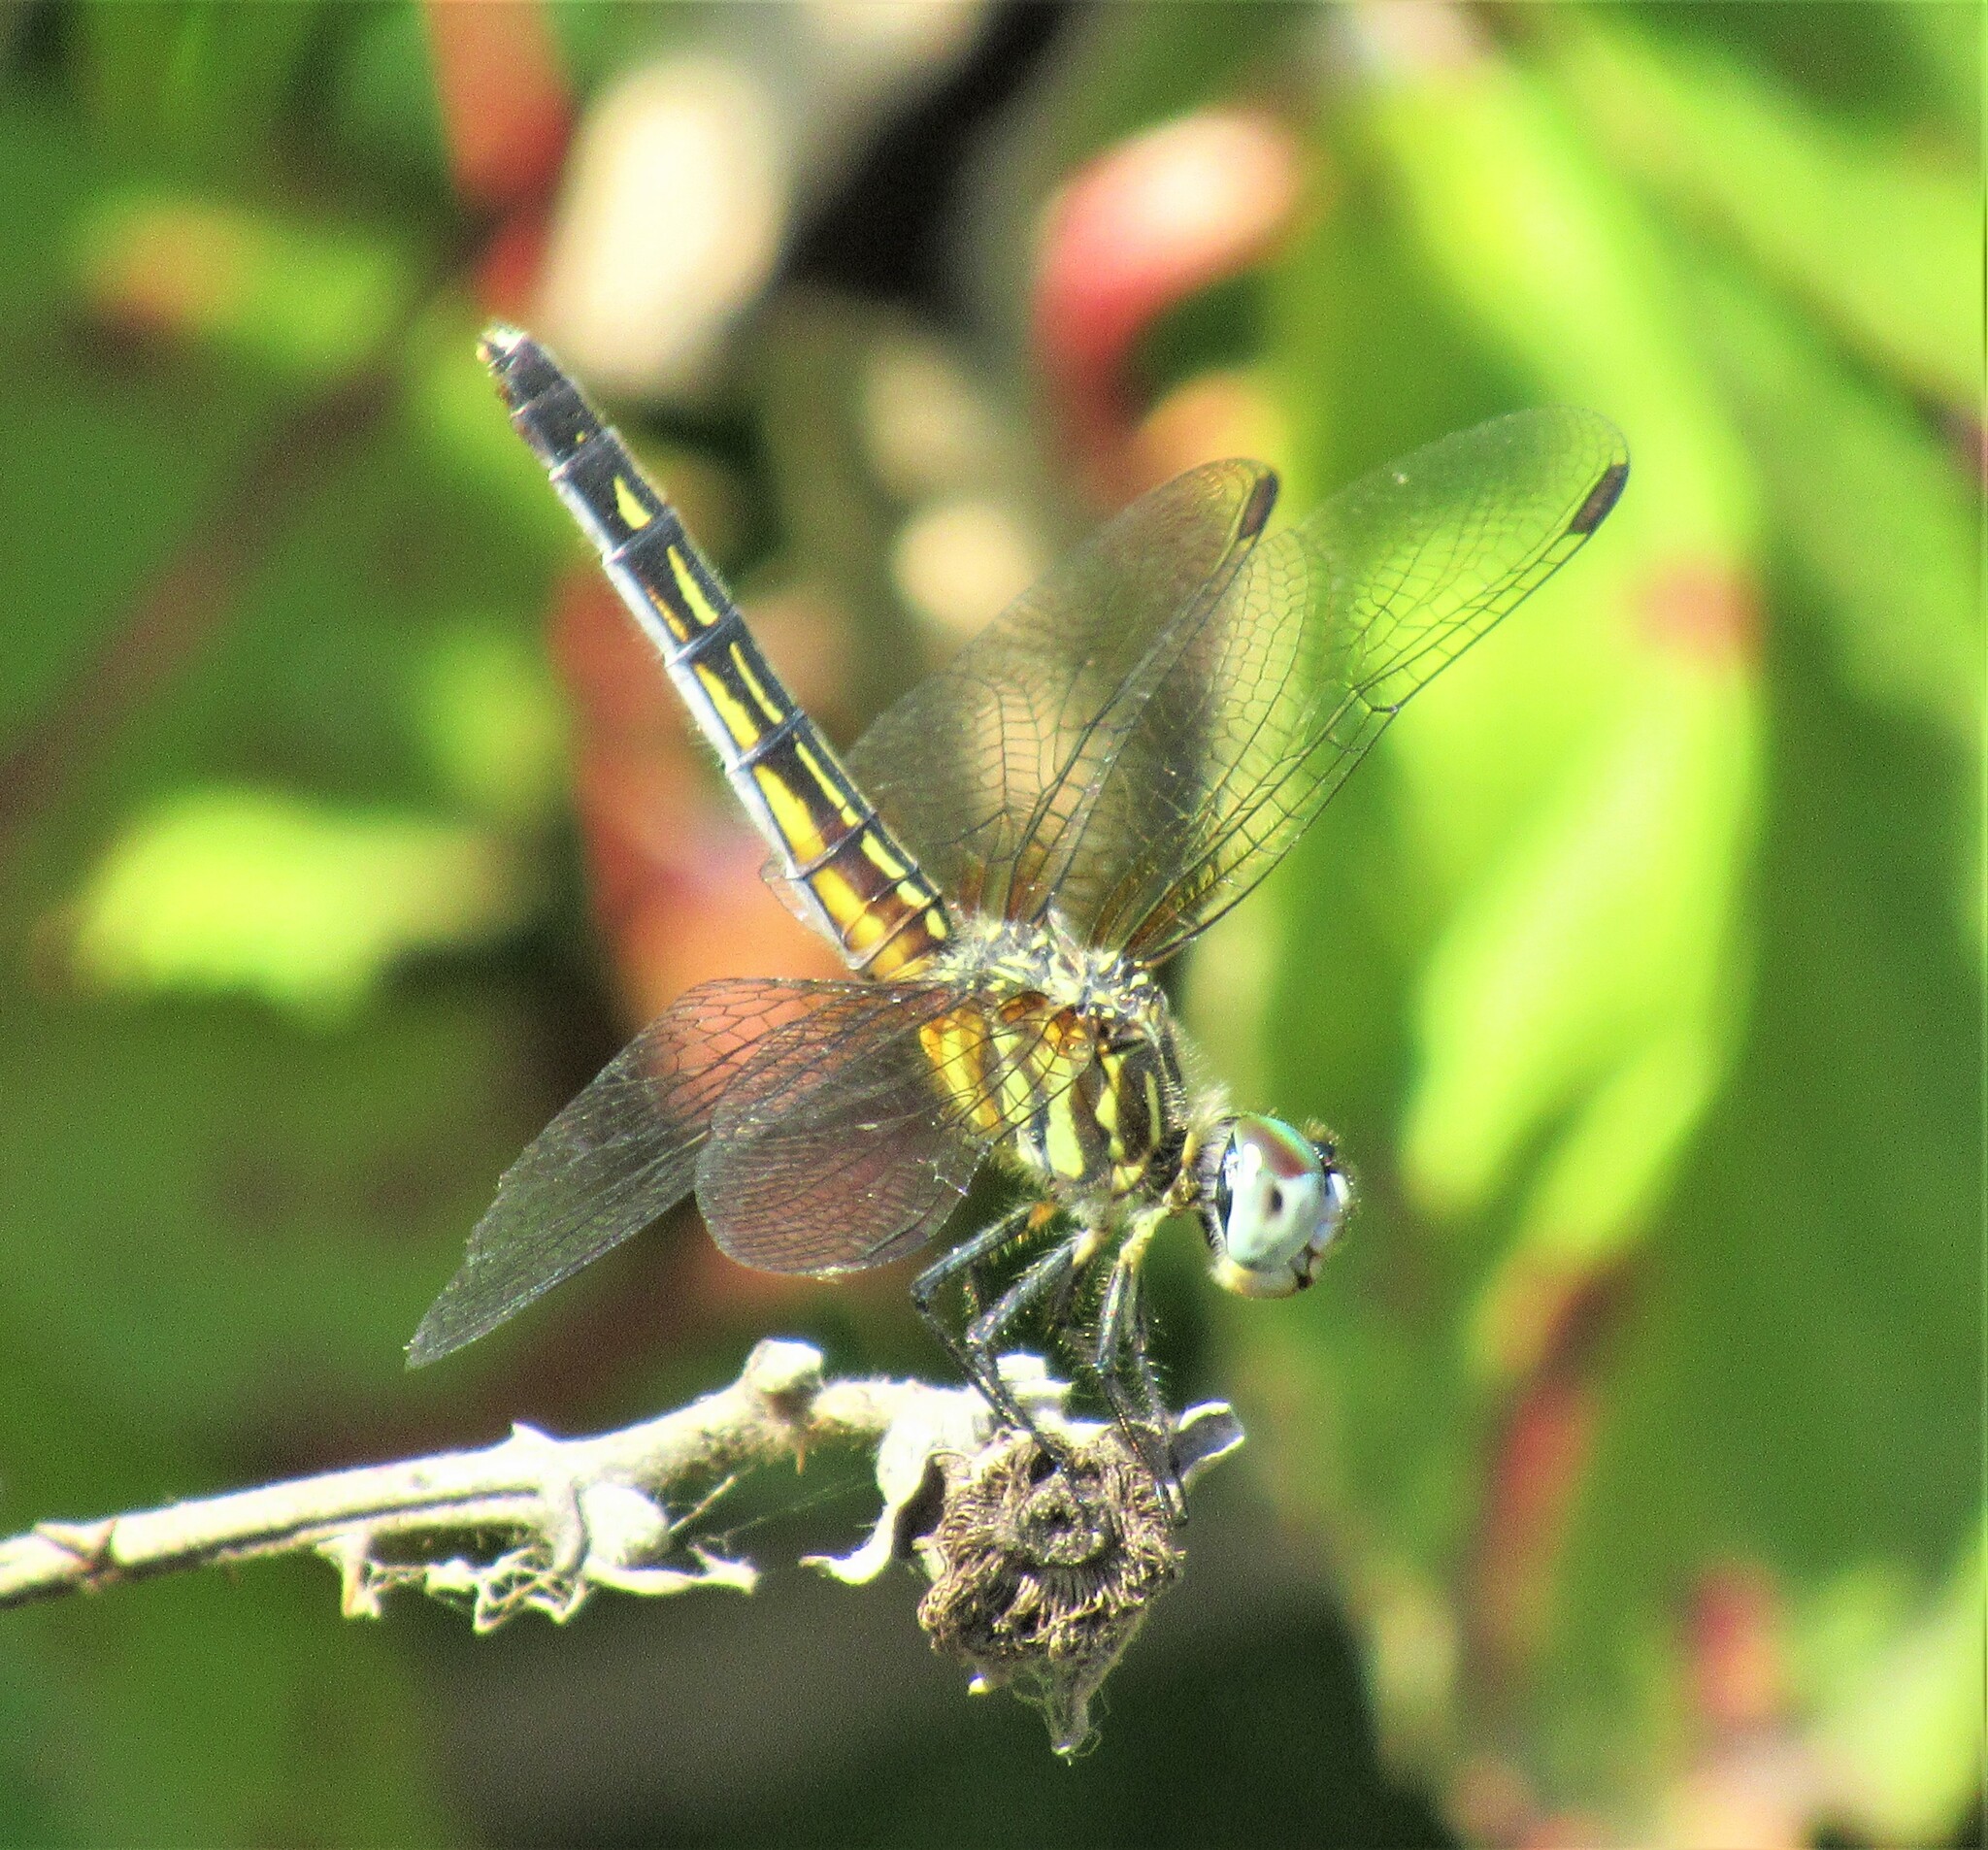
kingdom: Animalia
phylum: Arthropoda
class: Insecta
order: Odonata
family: Libellulidae
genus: Pachydiplax
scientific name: Pachydiplax longipennis
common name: Blue dasher
